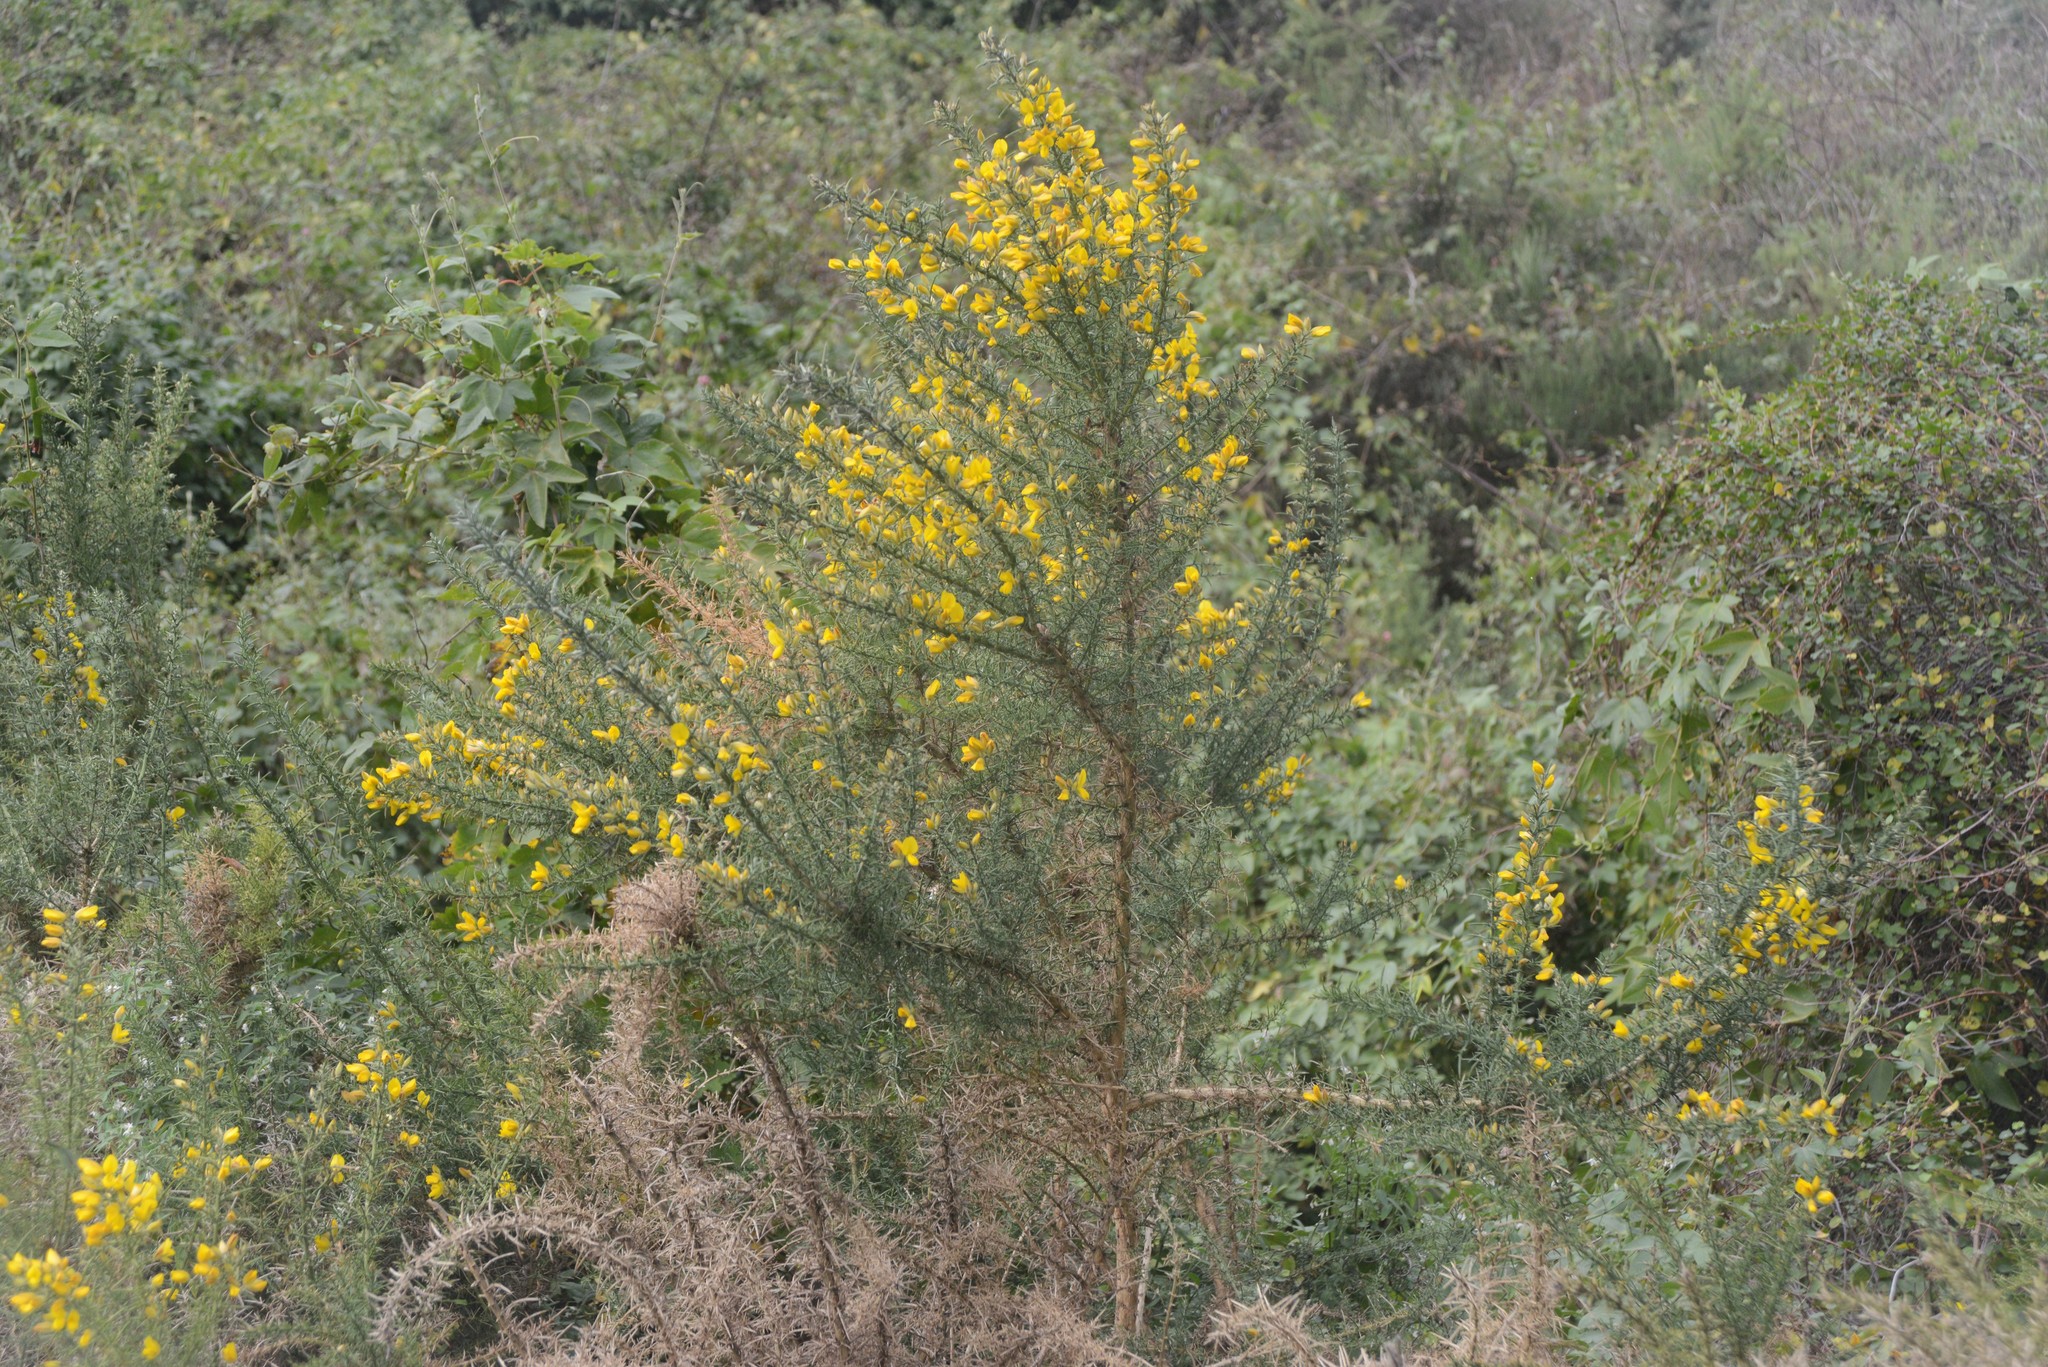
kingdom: Plantae
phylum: Tracheophyta
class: Magnoliopsida
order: Fabales
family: Fabaceae
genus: Ulex
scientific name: Ulex europaeus
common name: Common gorse
